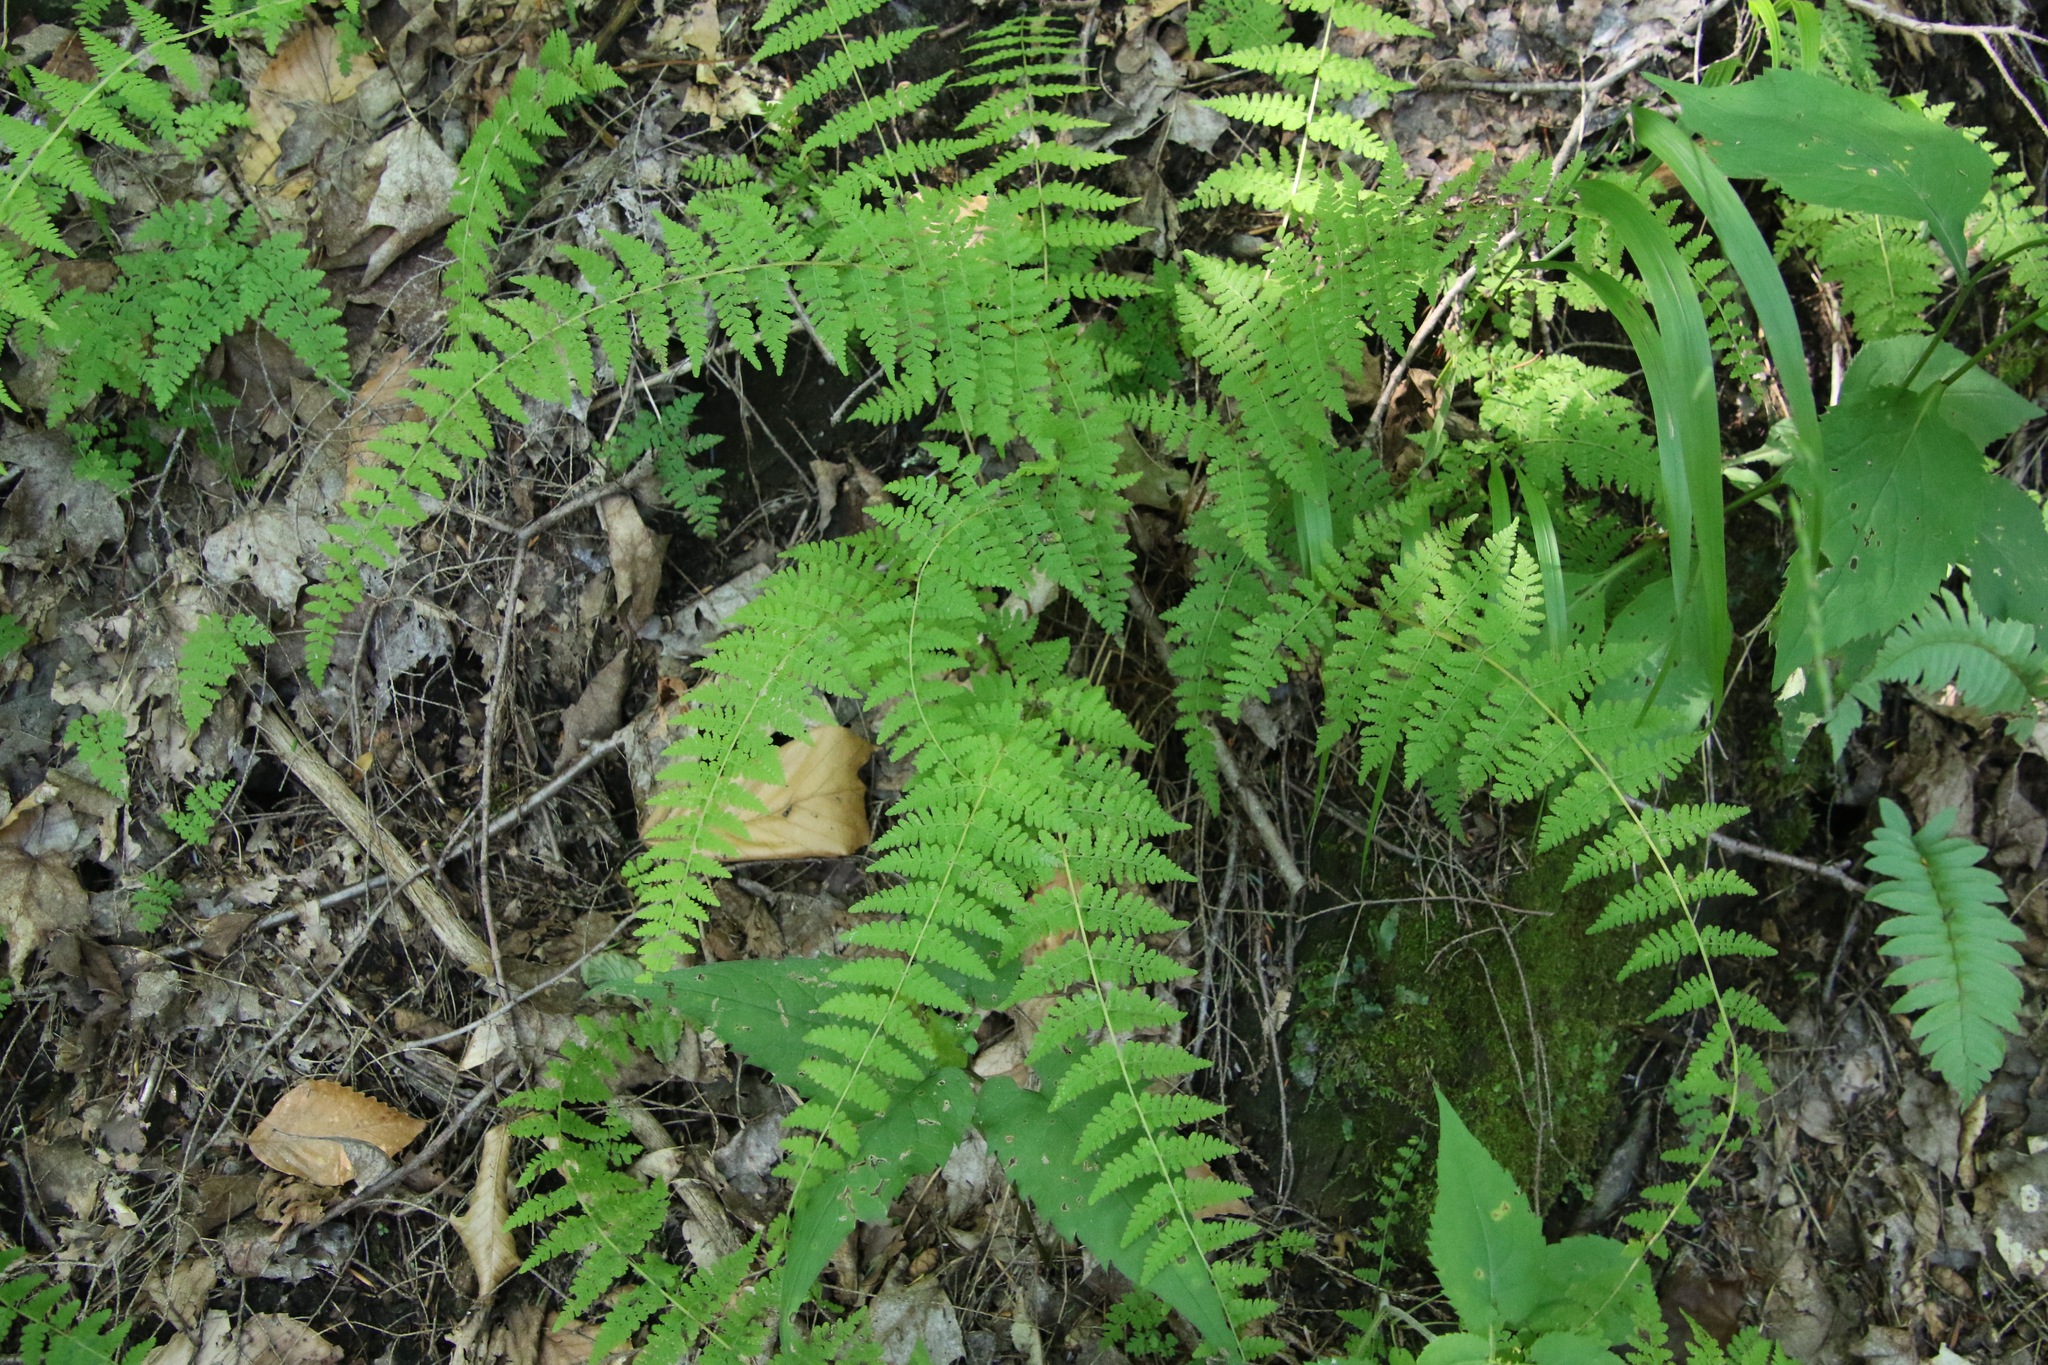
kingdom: Plantae
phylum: Tracheophyta
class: Polypodiopsida
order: Polypodiales
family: Cystopteridaceae
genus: Cystopteris
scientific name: Cystopteris bulbifera
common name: Bulblet bladder fern
